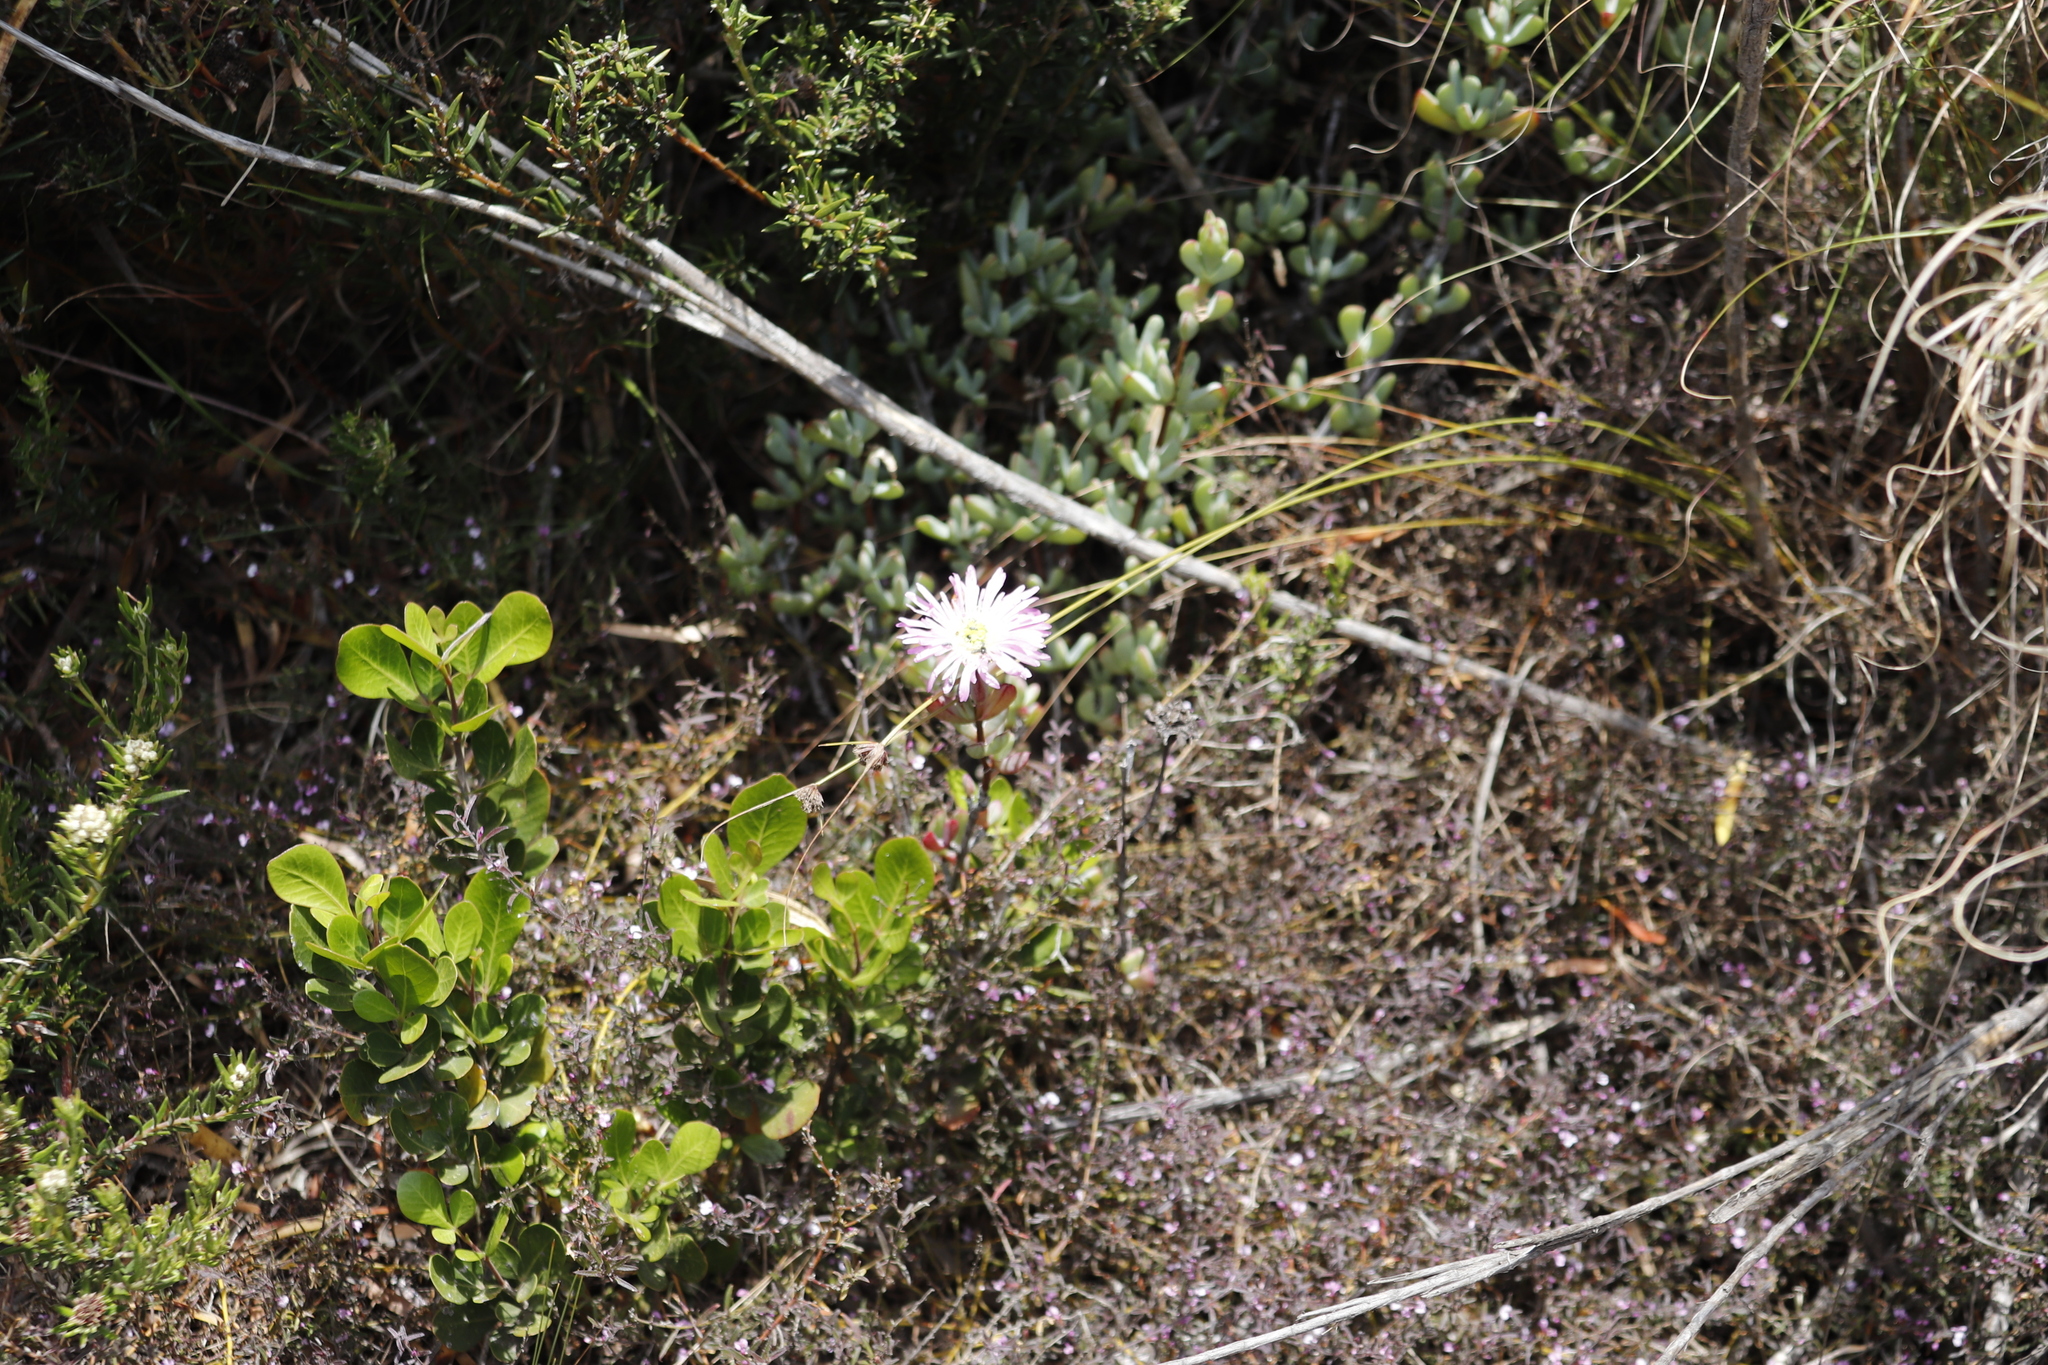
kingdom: Plantae
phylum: Tracheophyta
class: Magnoliopsida
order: Caryophyllales
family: Aizoaceae
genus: Oscularia
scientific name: Oscularia falciformis
